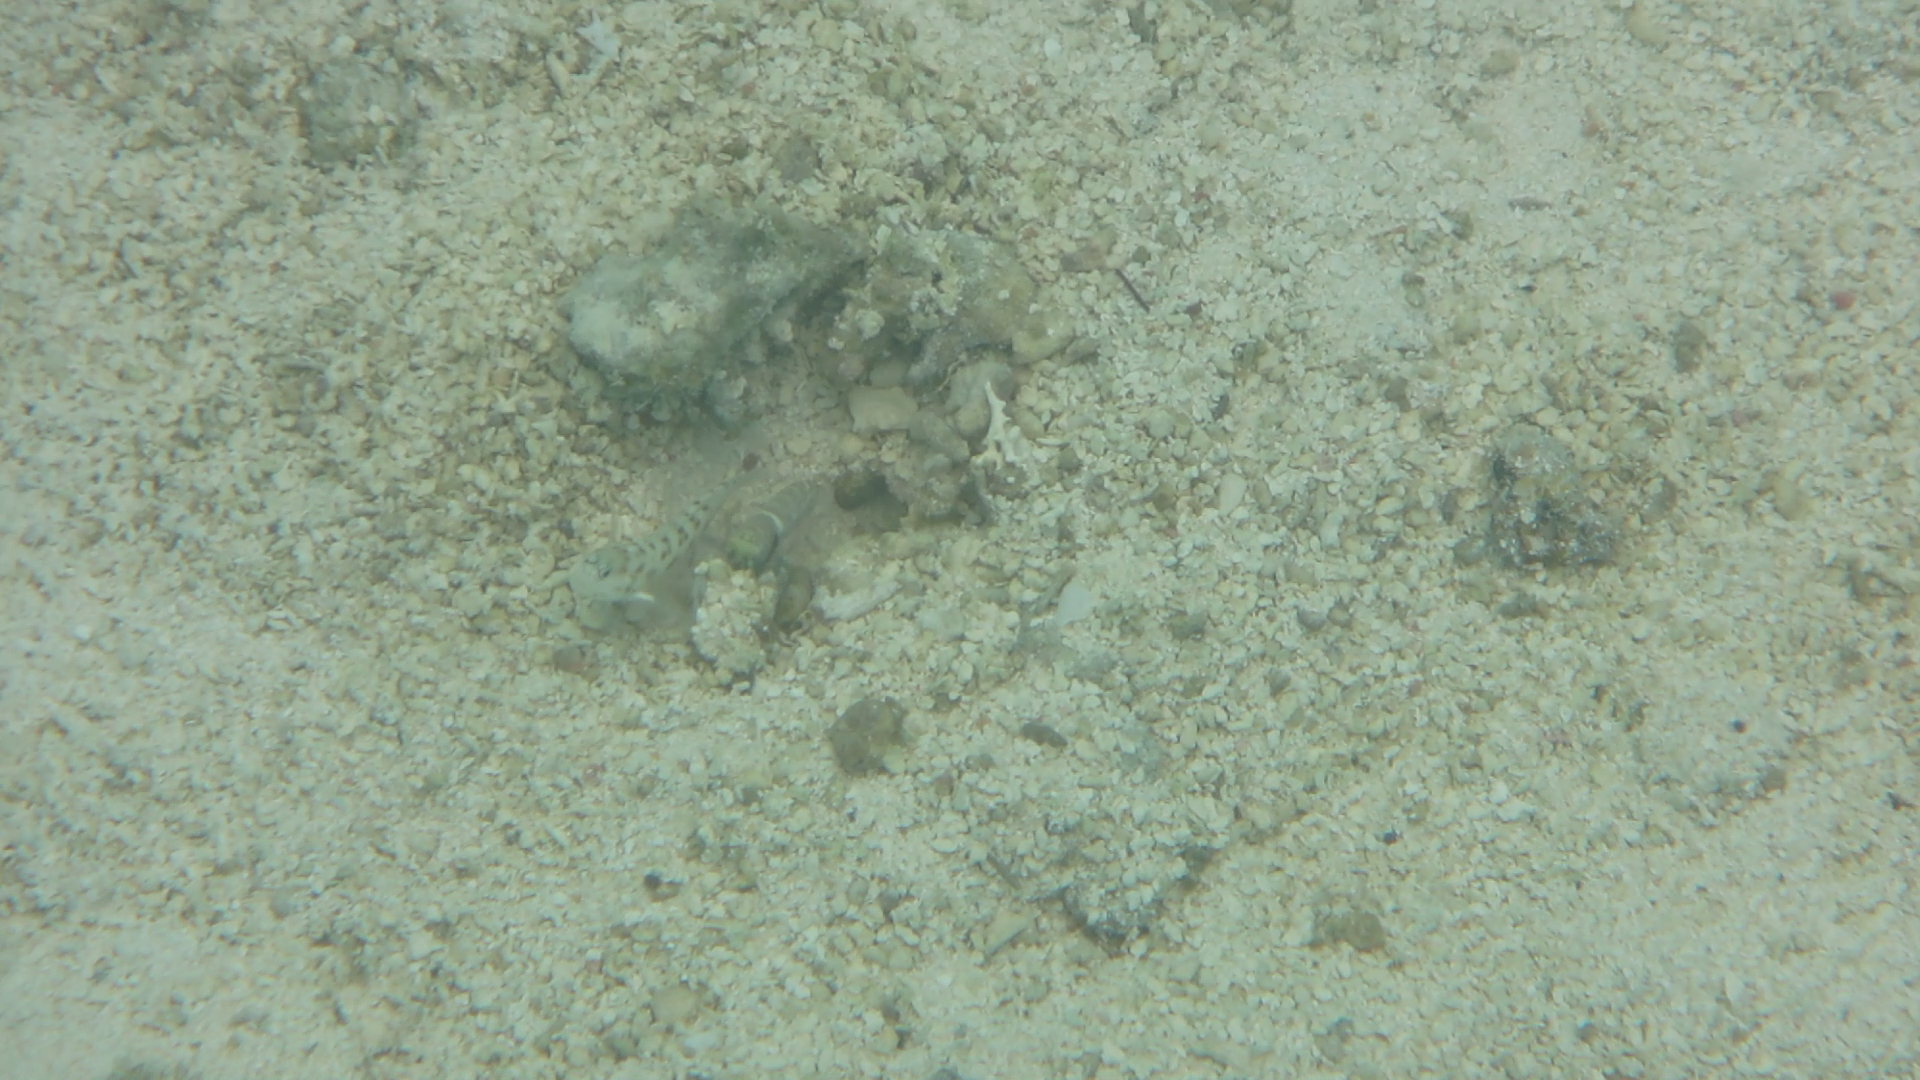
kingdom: Animalia
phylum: Arthropoda
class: Malacostraca
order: Decapoda
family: Alpheidae
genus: Alpheus
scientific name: Alpheus djiboutensis
